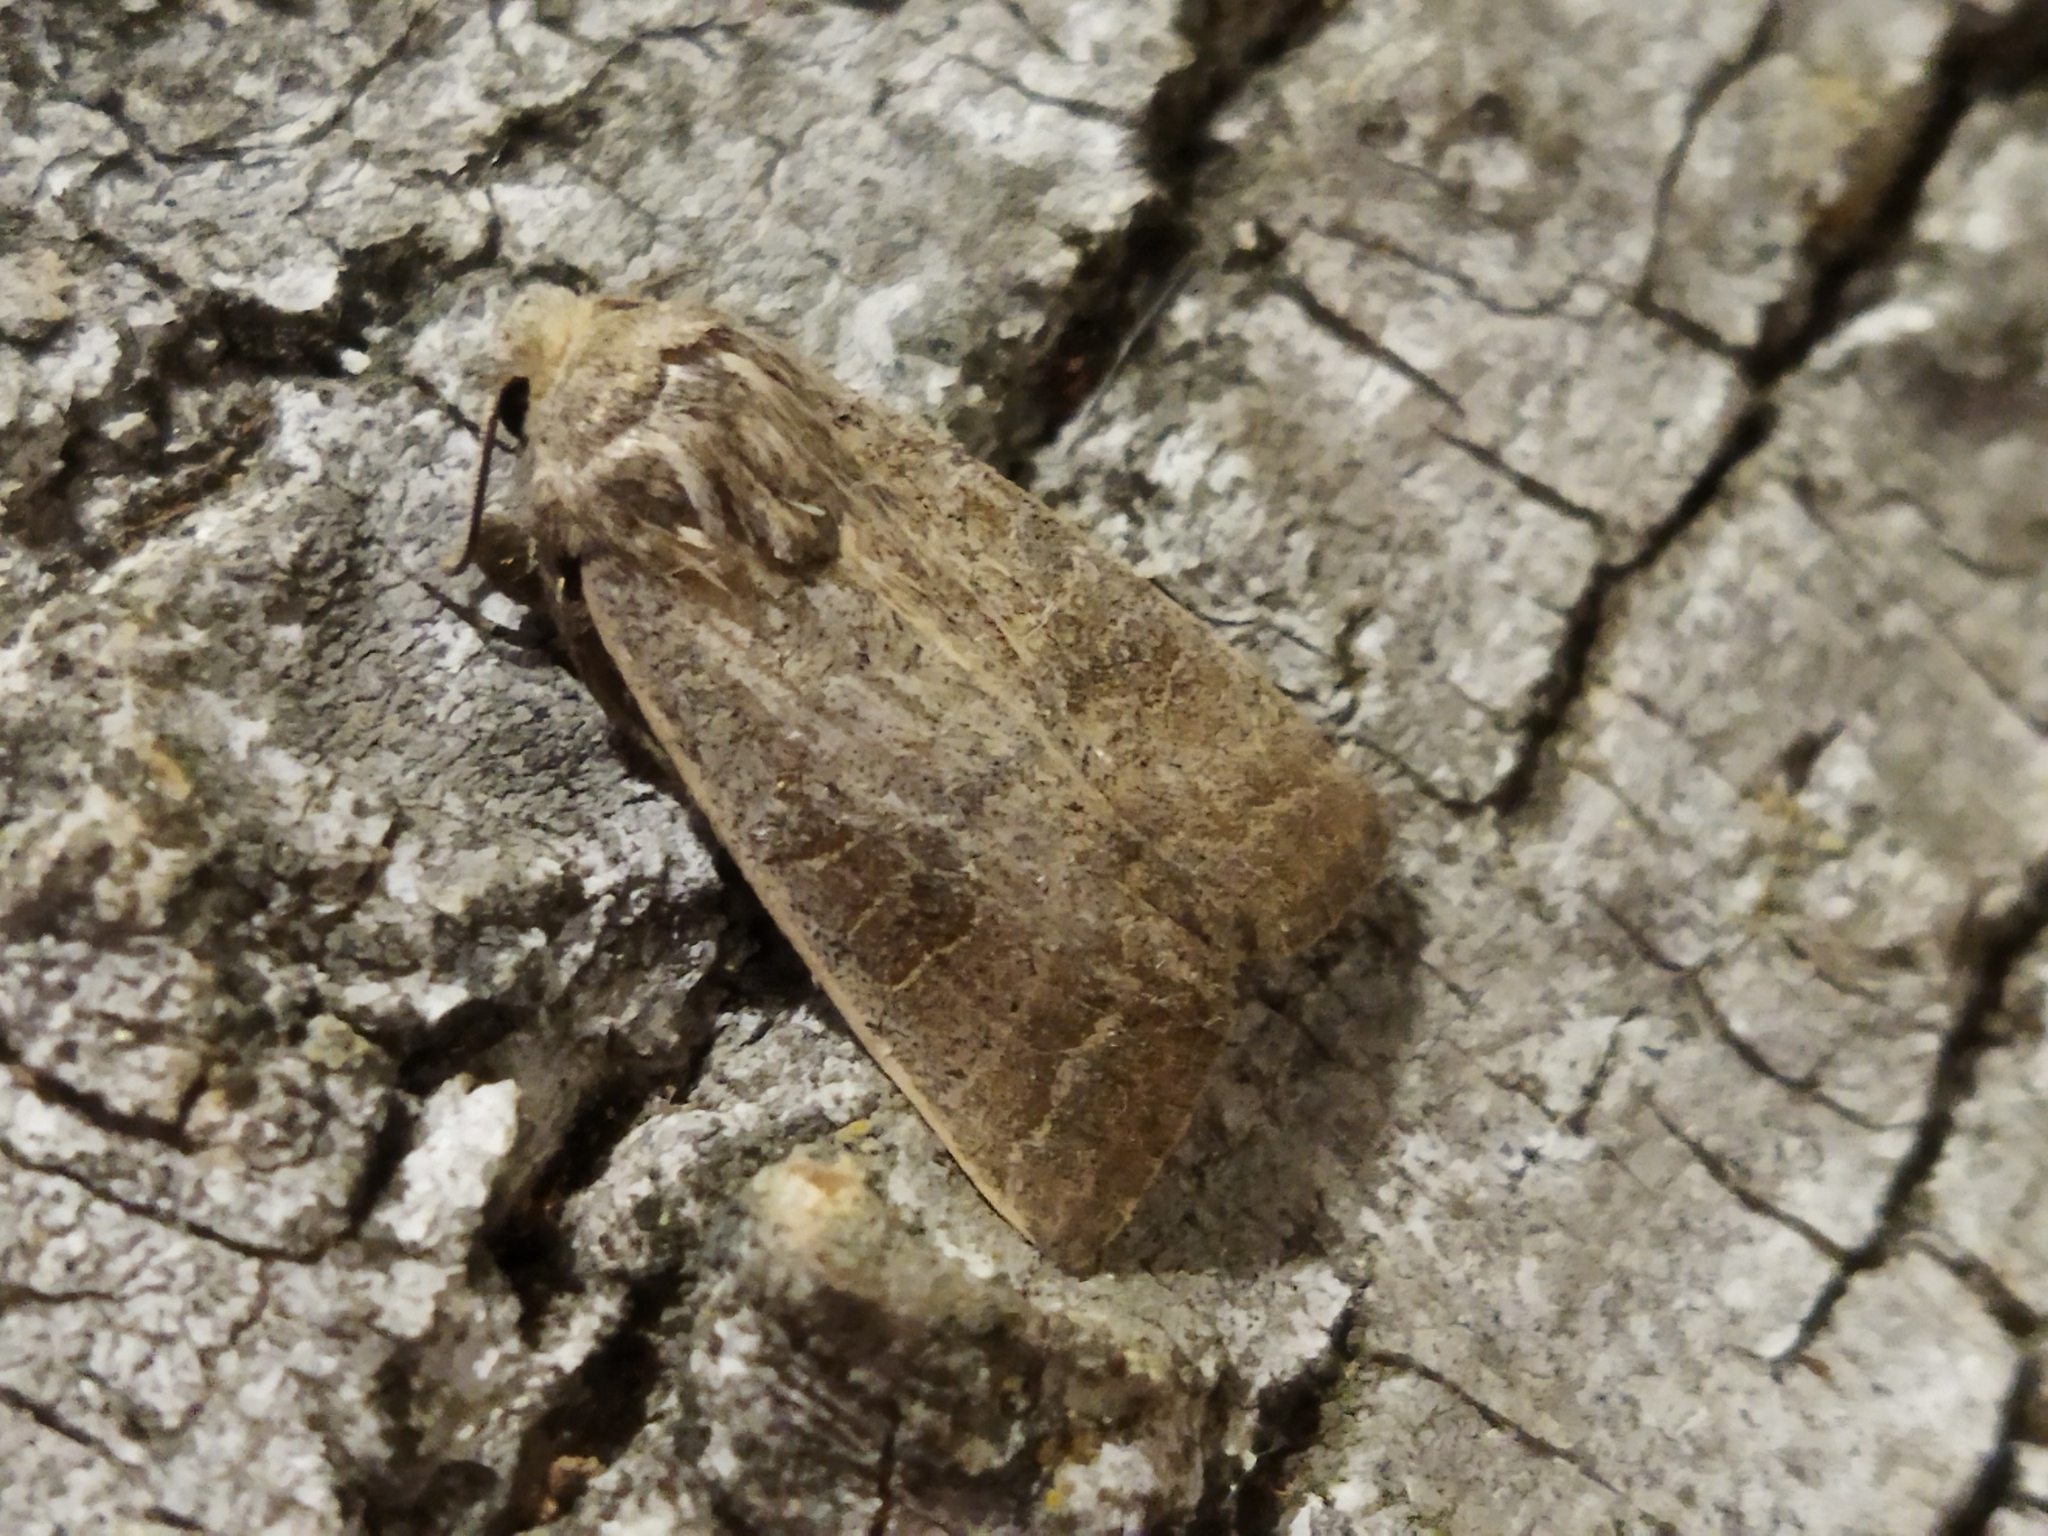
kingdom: Animalia
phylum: Arthropoda
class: Insecta
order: Lepidoptera
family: Noctuidae
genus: Hoplodrina
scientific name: Hoplodrina ambigua
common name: Vine's rustic
